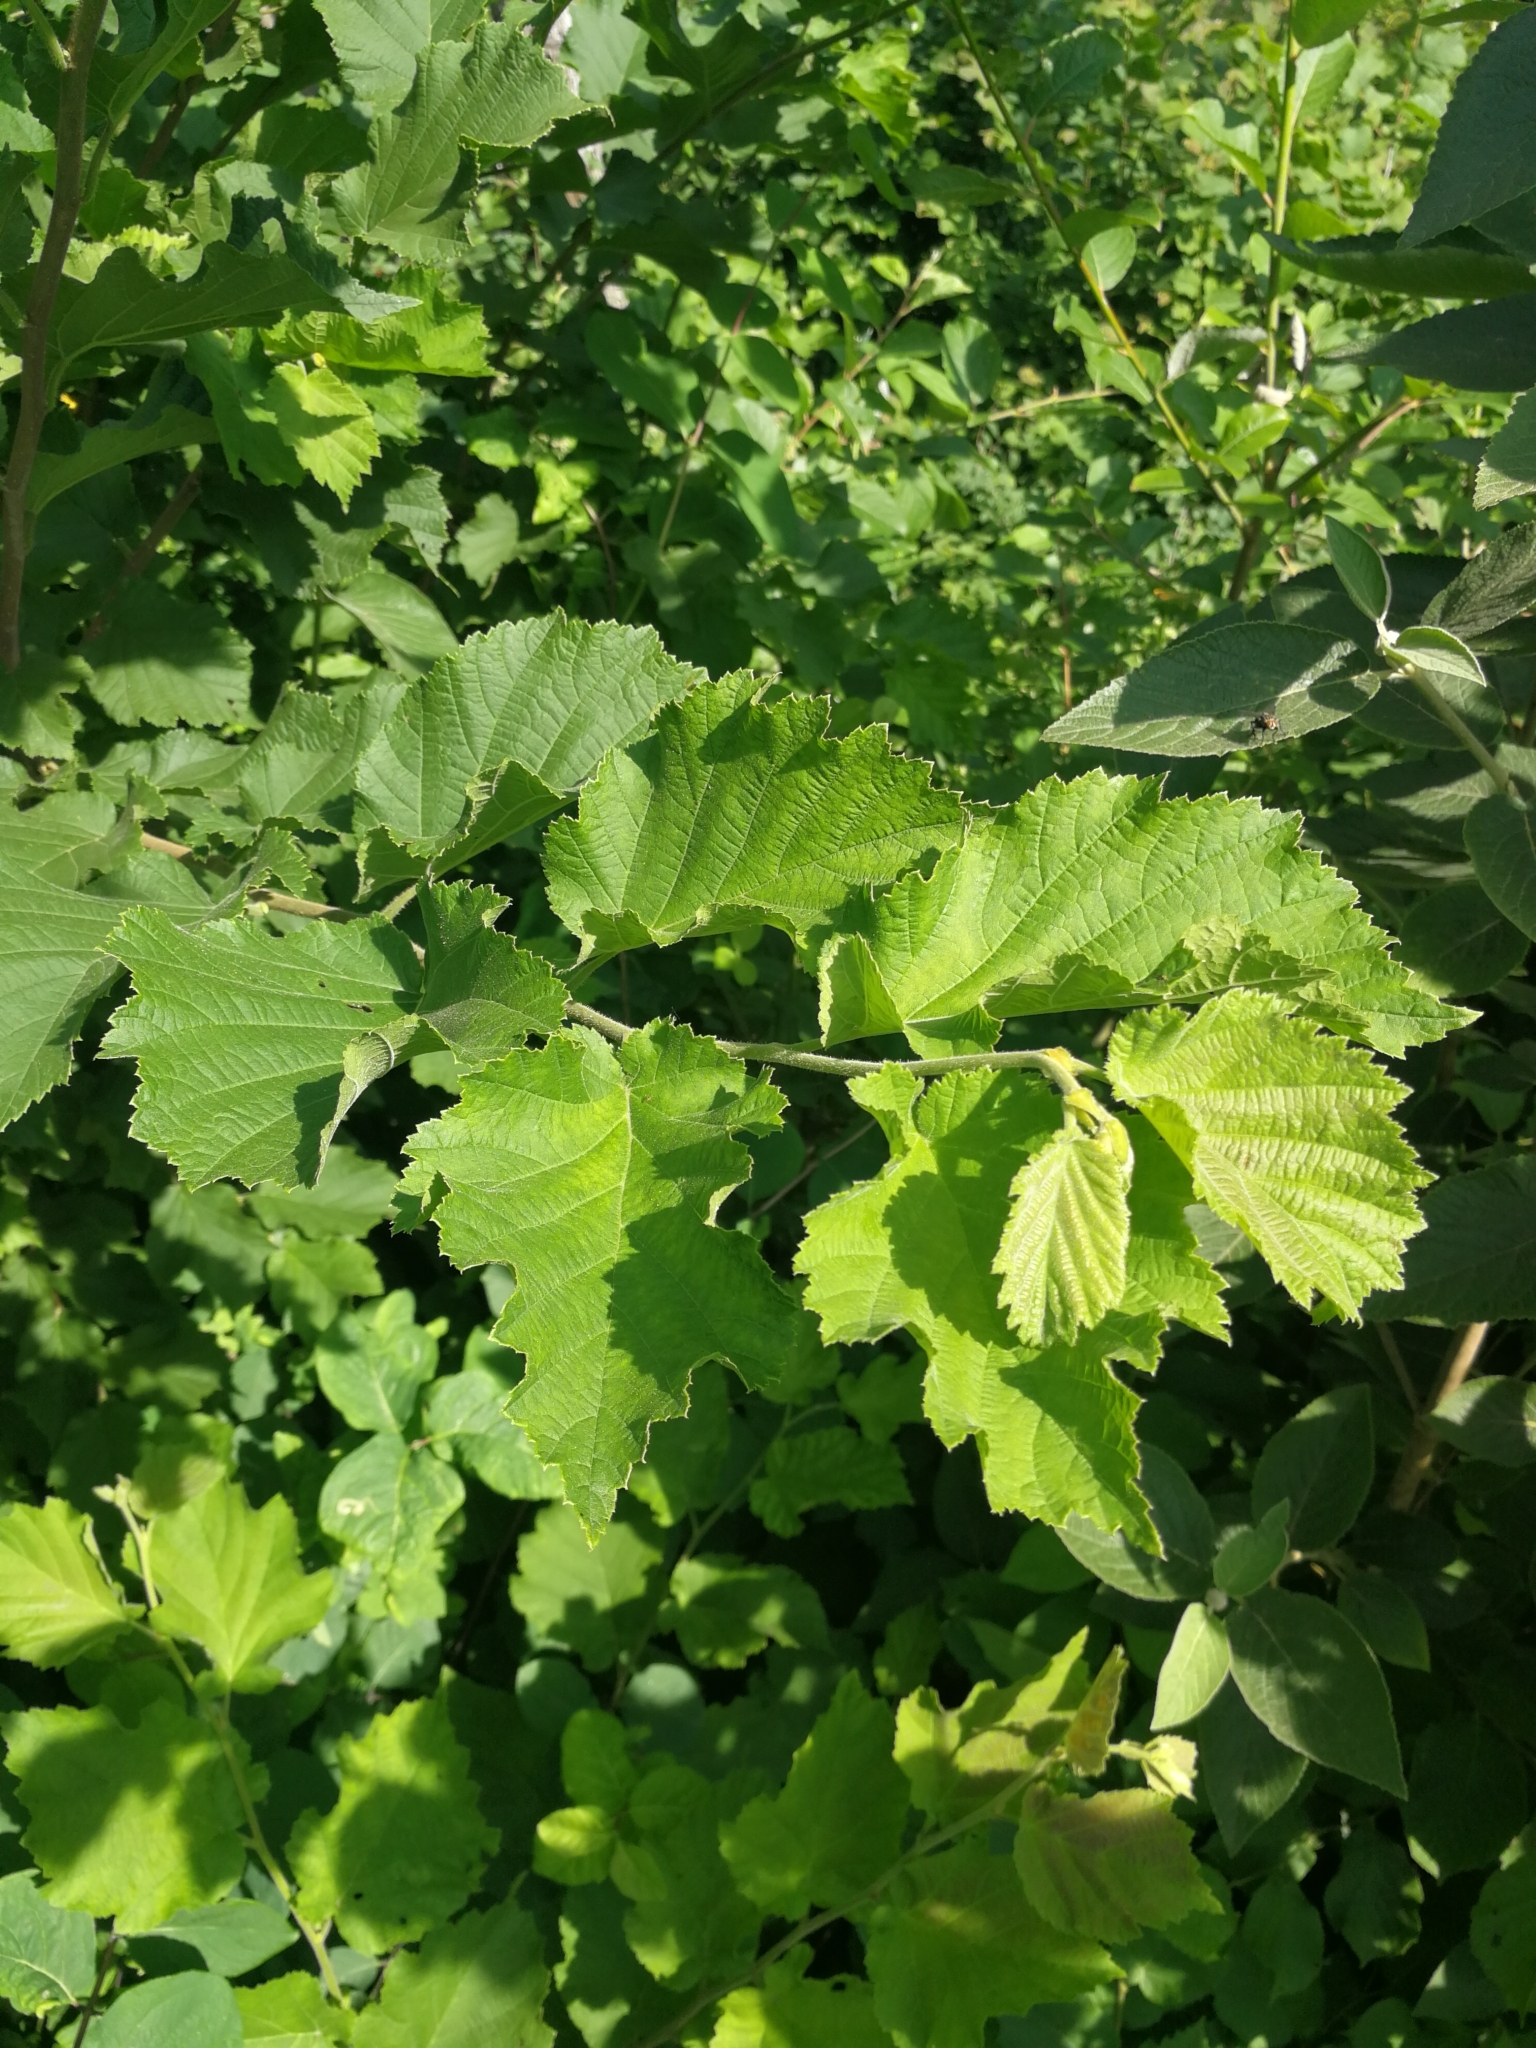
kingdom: Plantae
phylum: Tracheophyta
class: Magnoliopsida
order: Fagales
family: Betulaceae
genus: Corylus
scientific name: Corylus avellana
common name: European hazel
